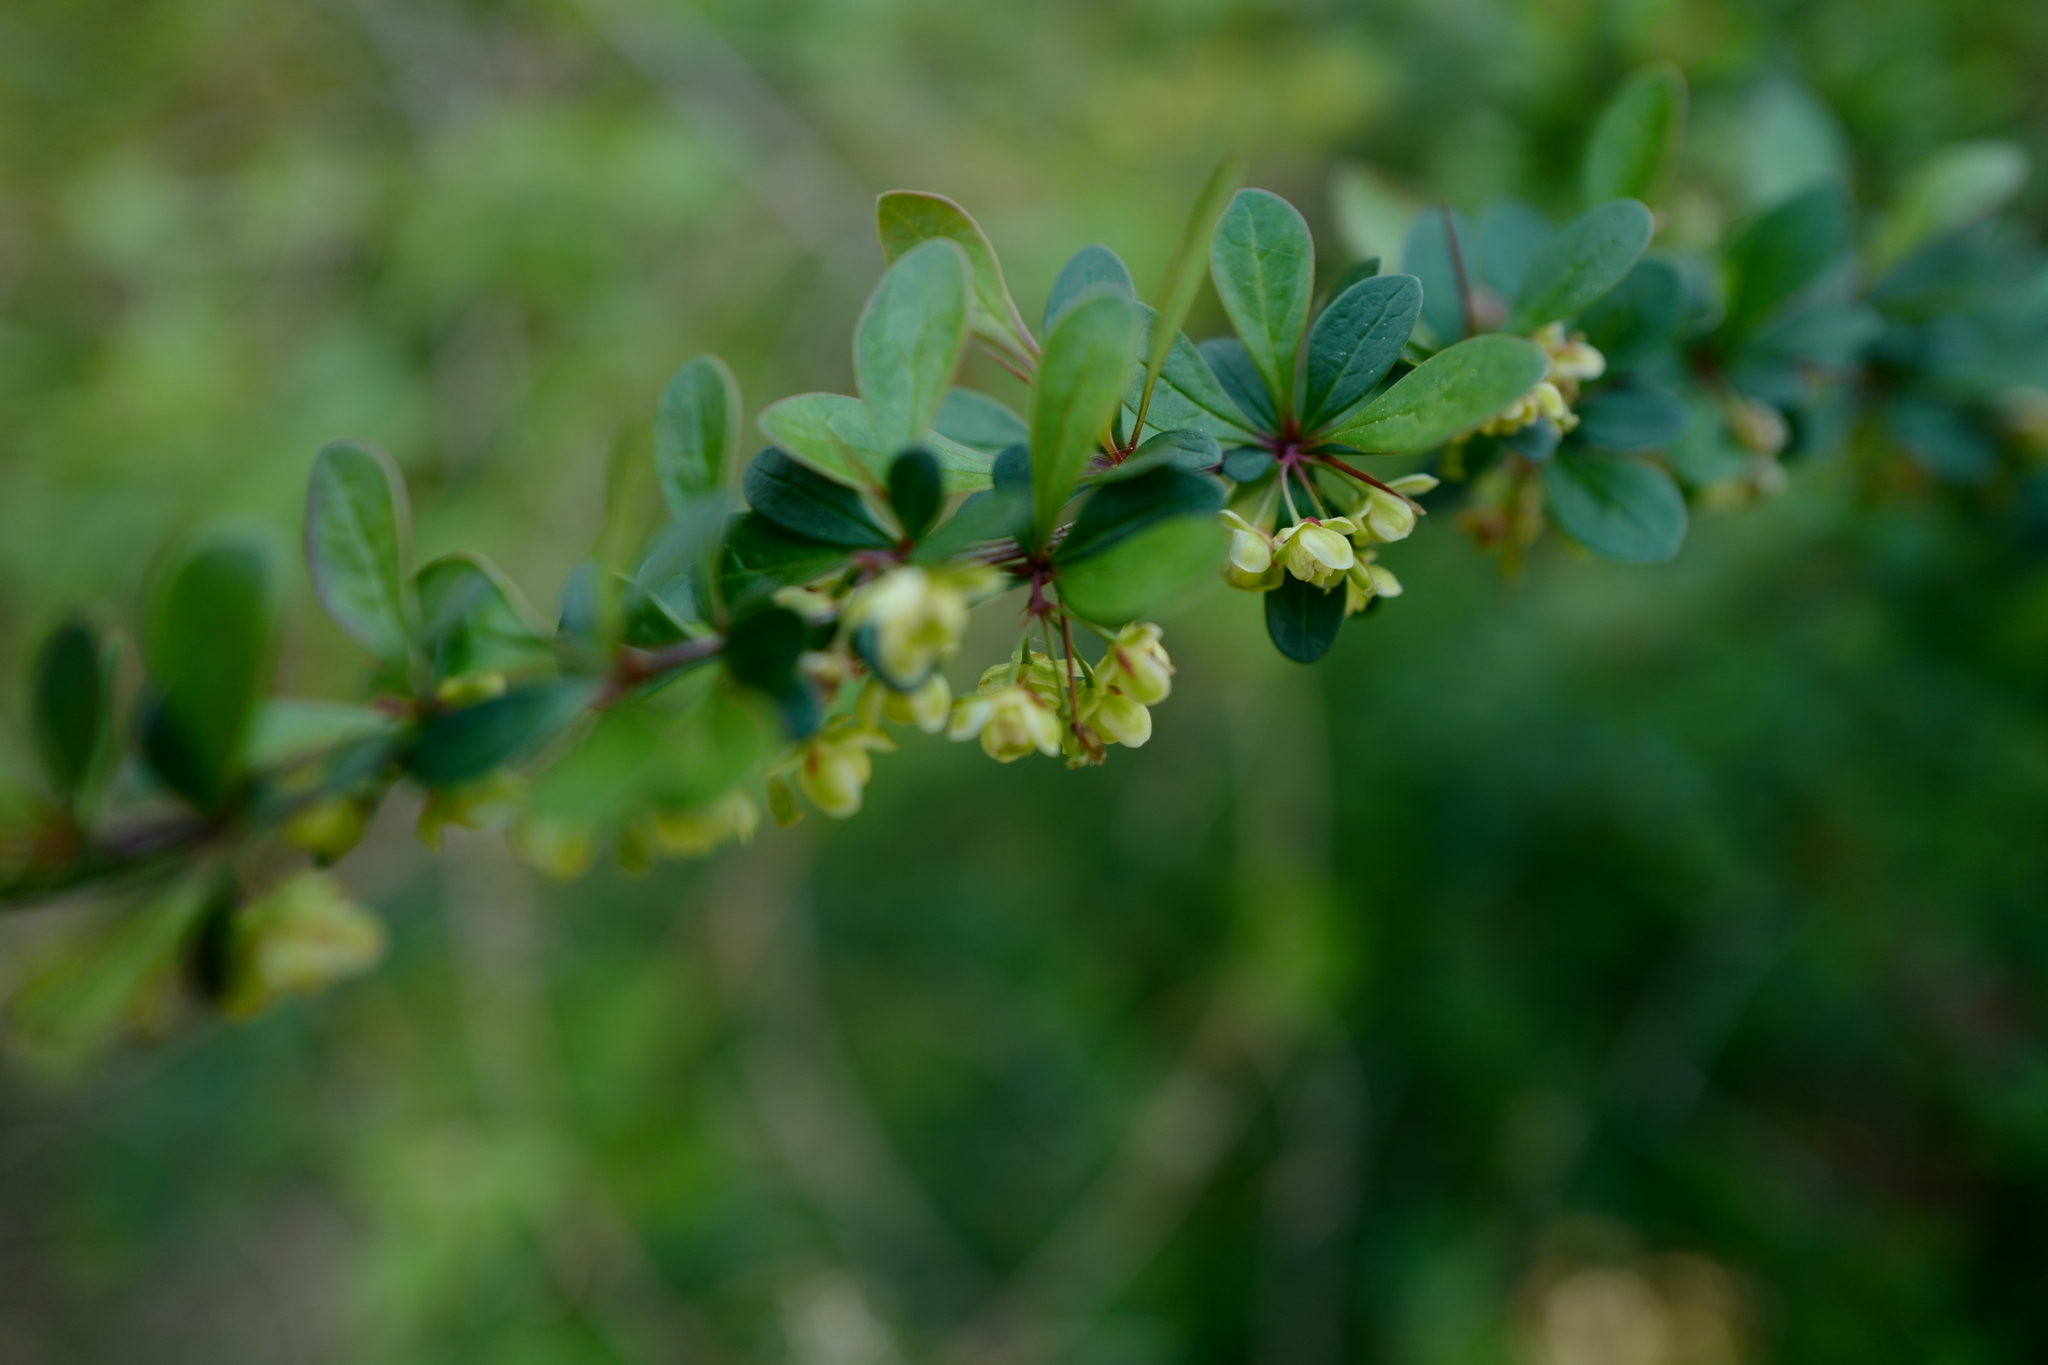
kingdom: Plantae
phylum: Tracheophyta
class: Magnoliopsida
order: Ranunculales
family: Berberidaceae
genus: Berberis
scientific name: Berberis thunbergii
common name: Japanese barberry
